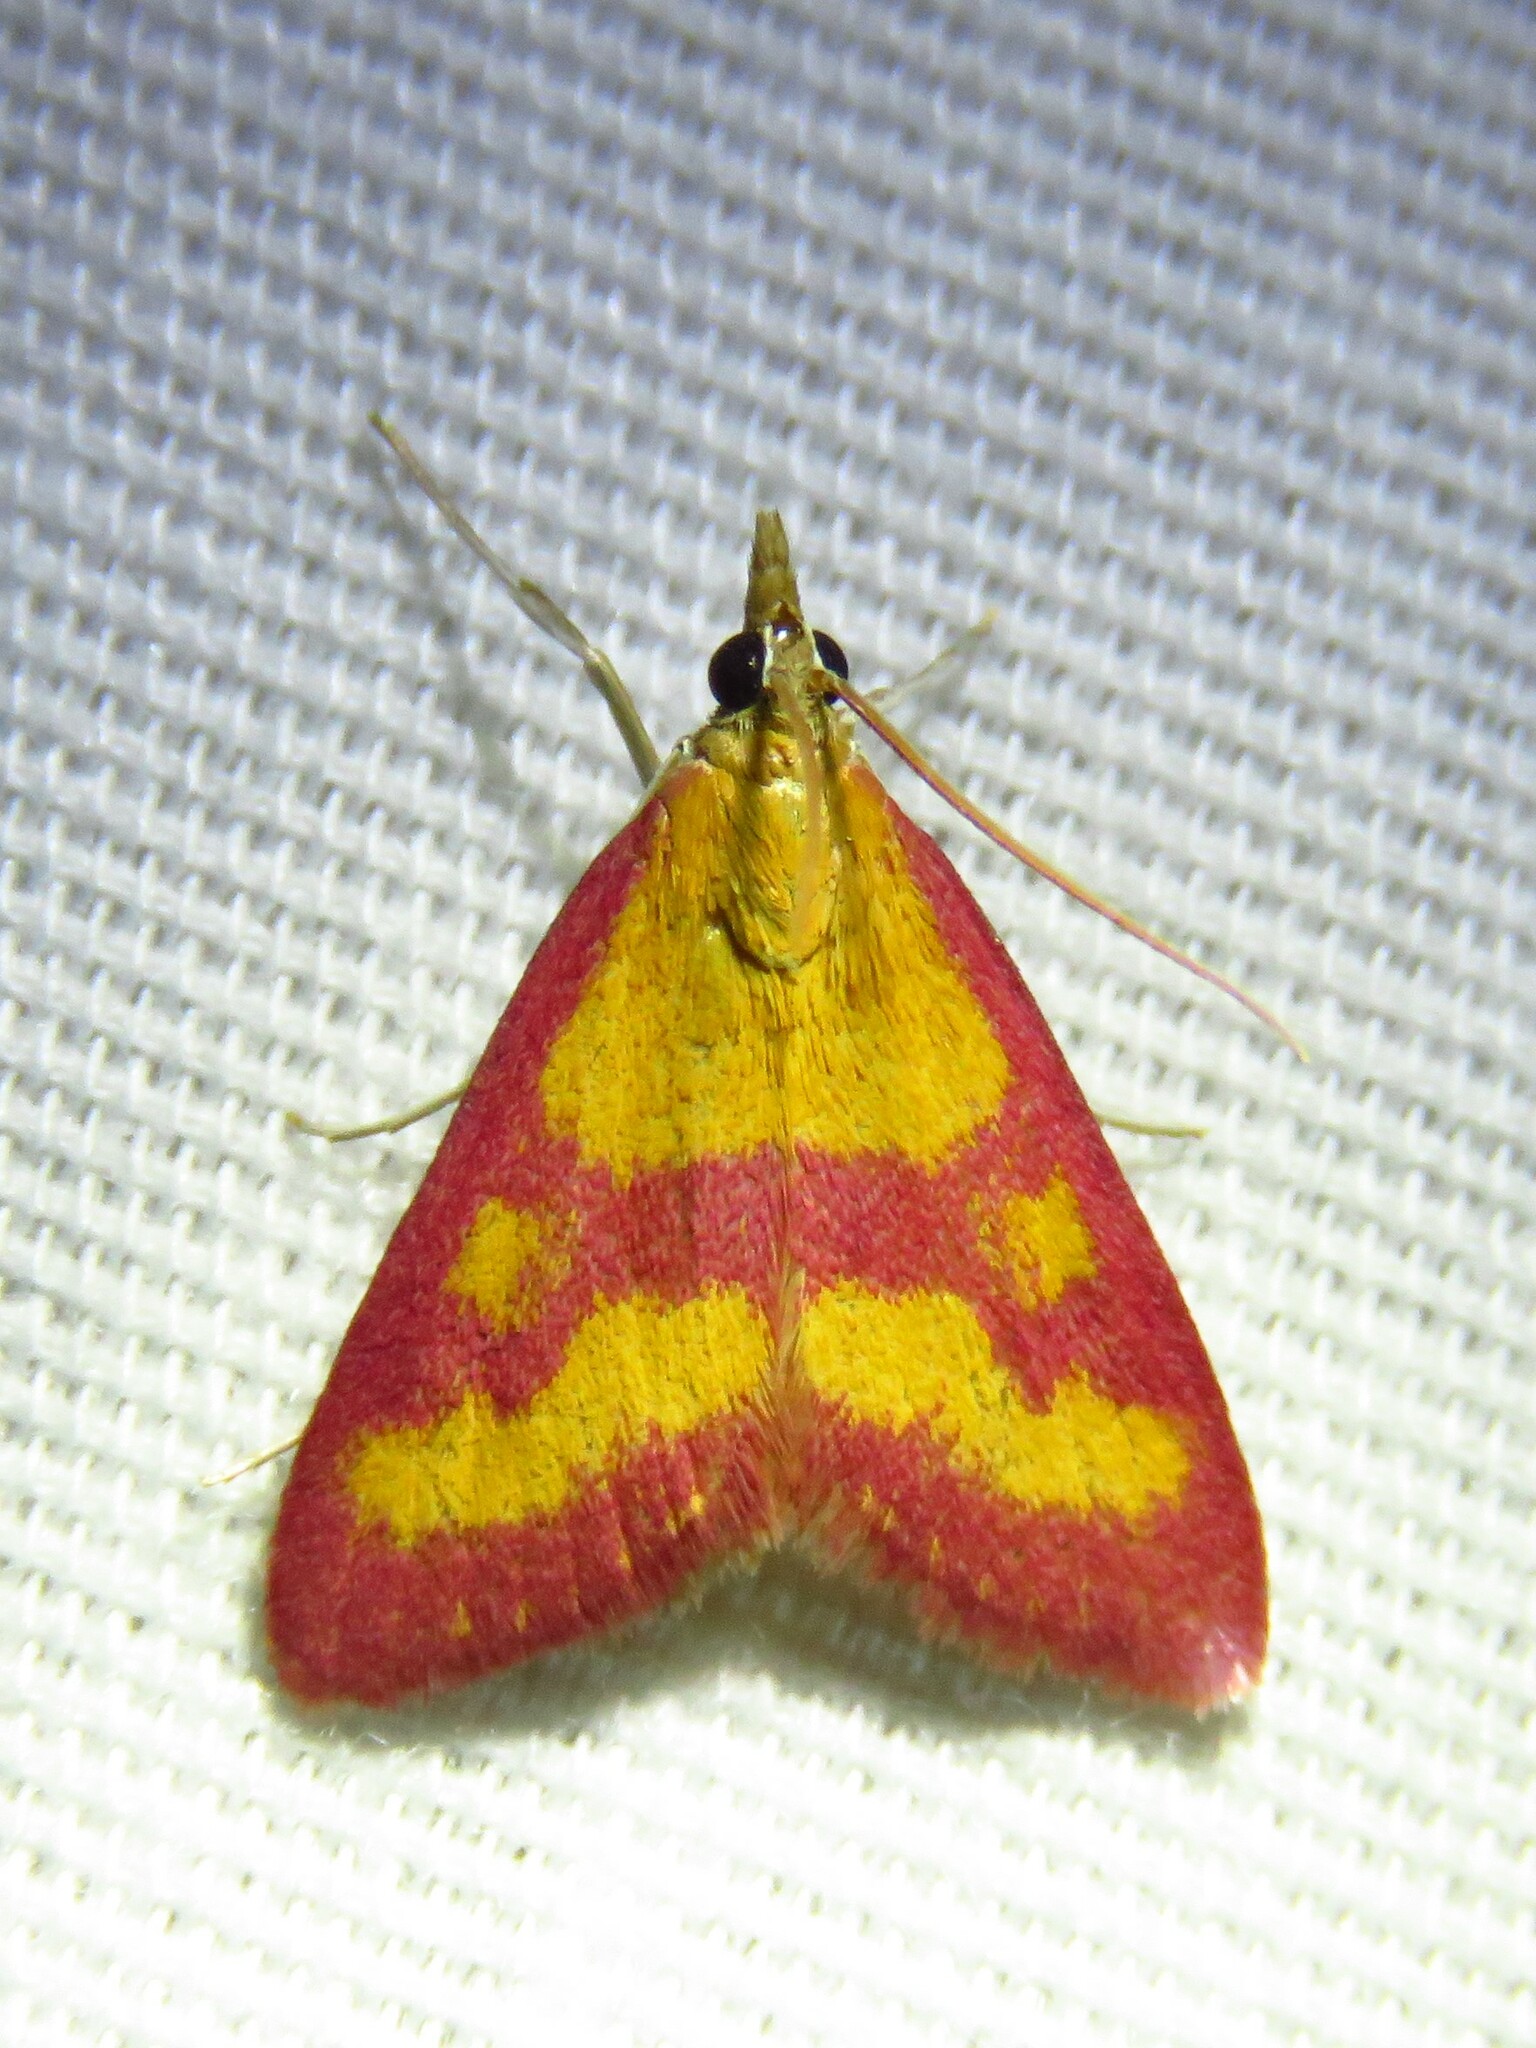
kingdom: Animalia
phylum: Arthropoda
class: Insecta
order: Lepidoptera
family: Crambidae
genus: Pyrausta
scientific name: Pyrausta laticlavia
